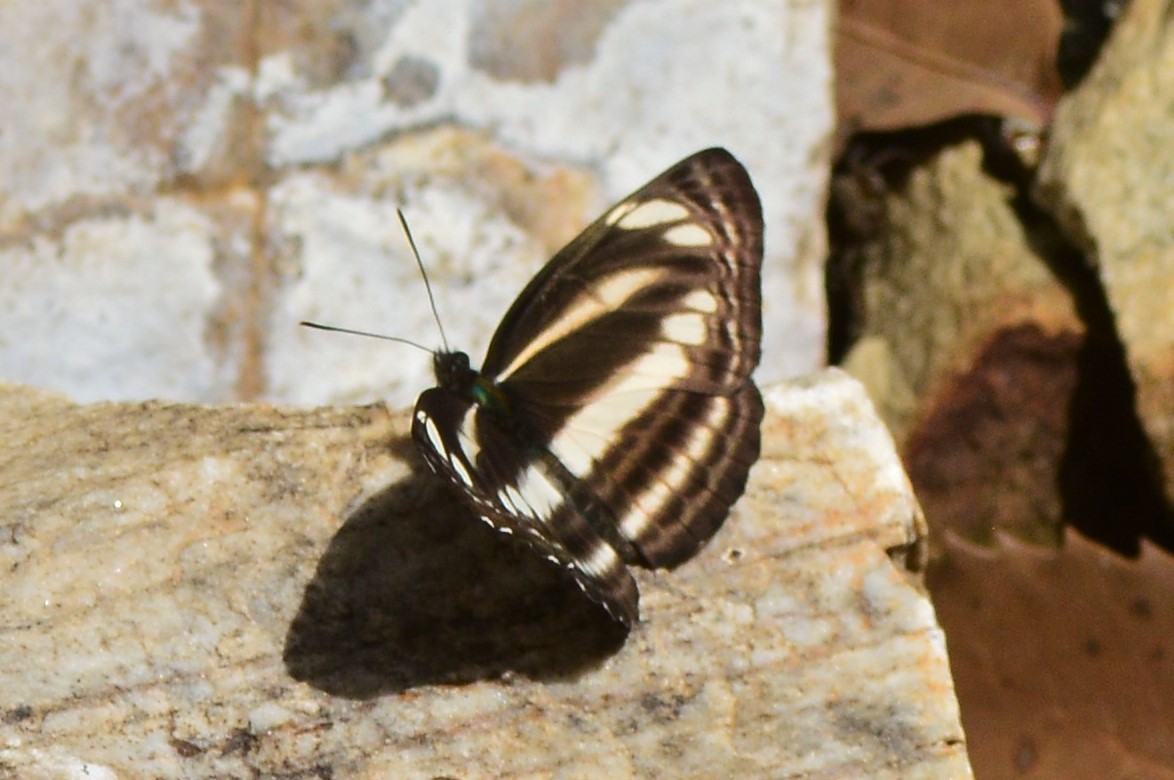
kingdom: Animalia
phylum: Arthropoda
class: Insecta
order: Lepidoptera
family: Nymphalidae
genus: Neptis
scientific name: Neptis cartica
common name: Plain sailer
